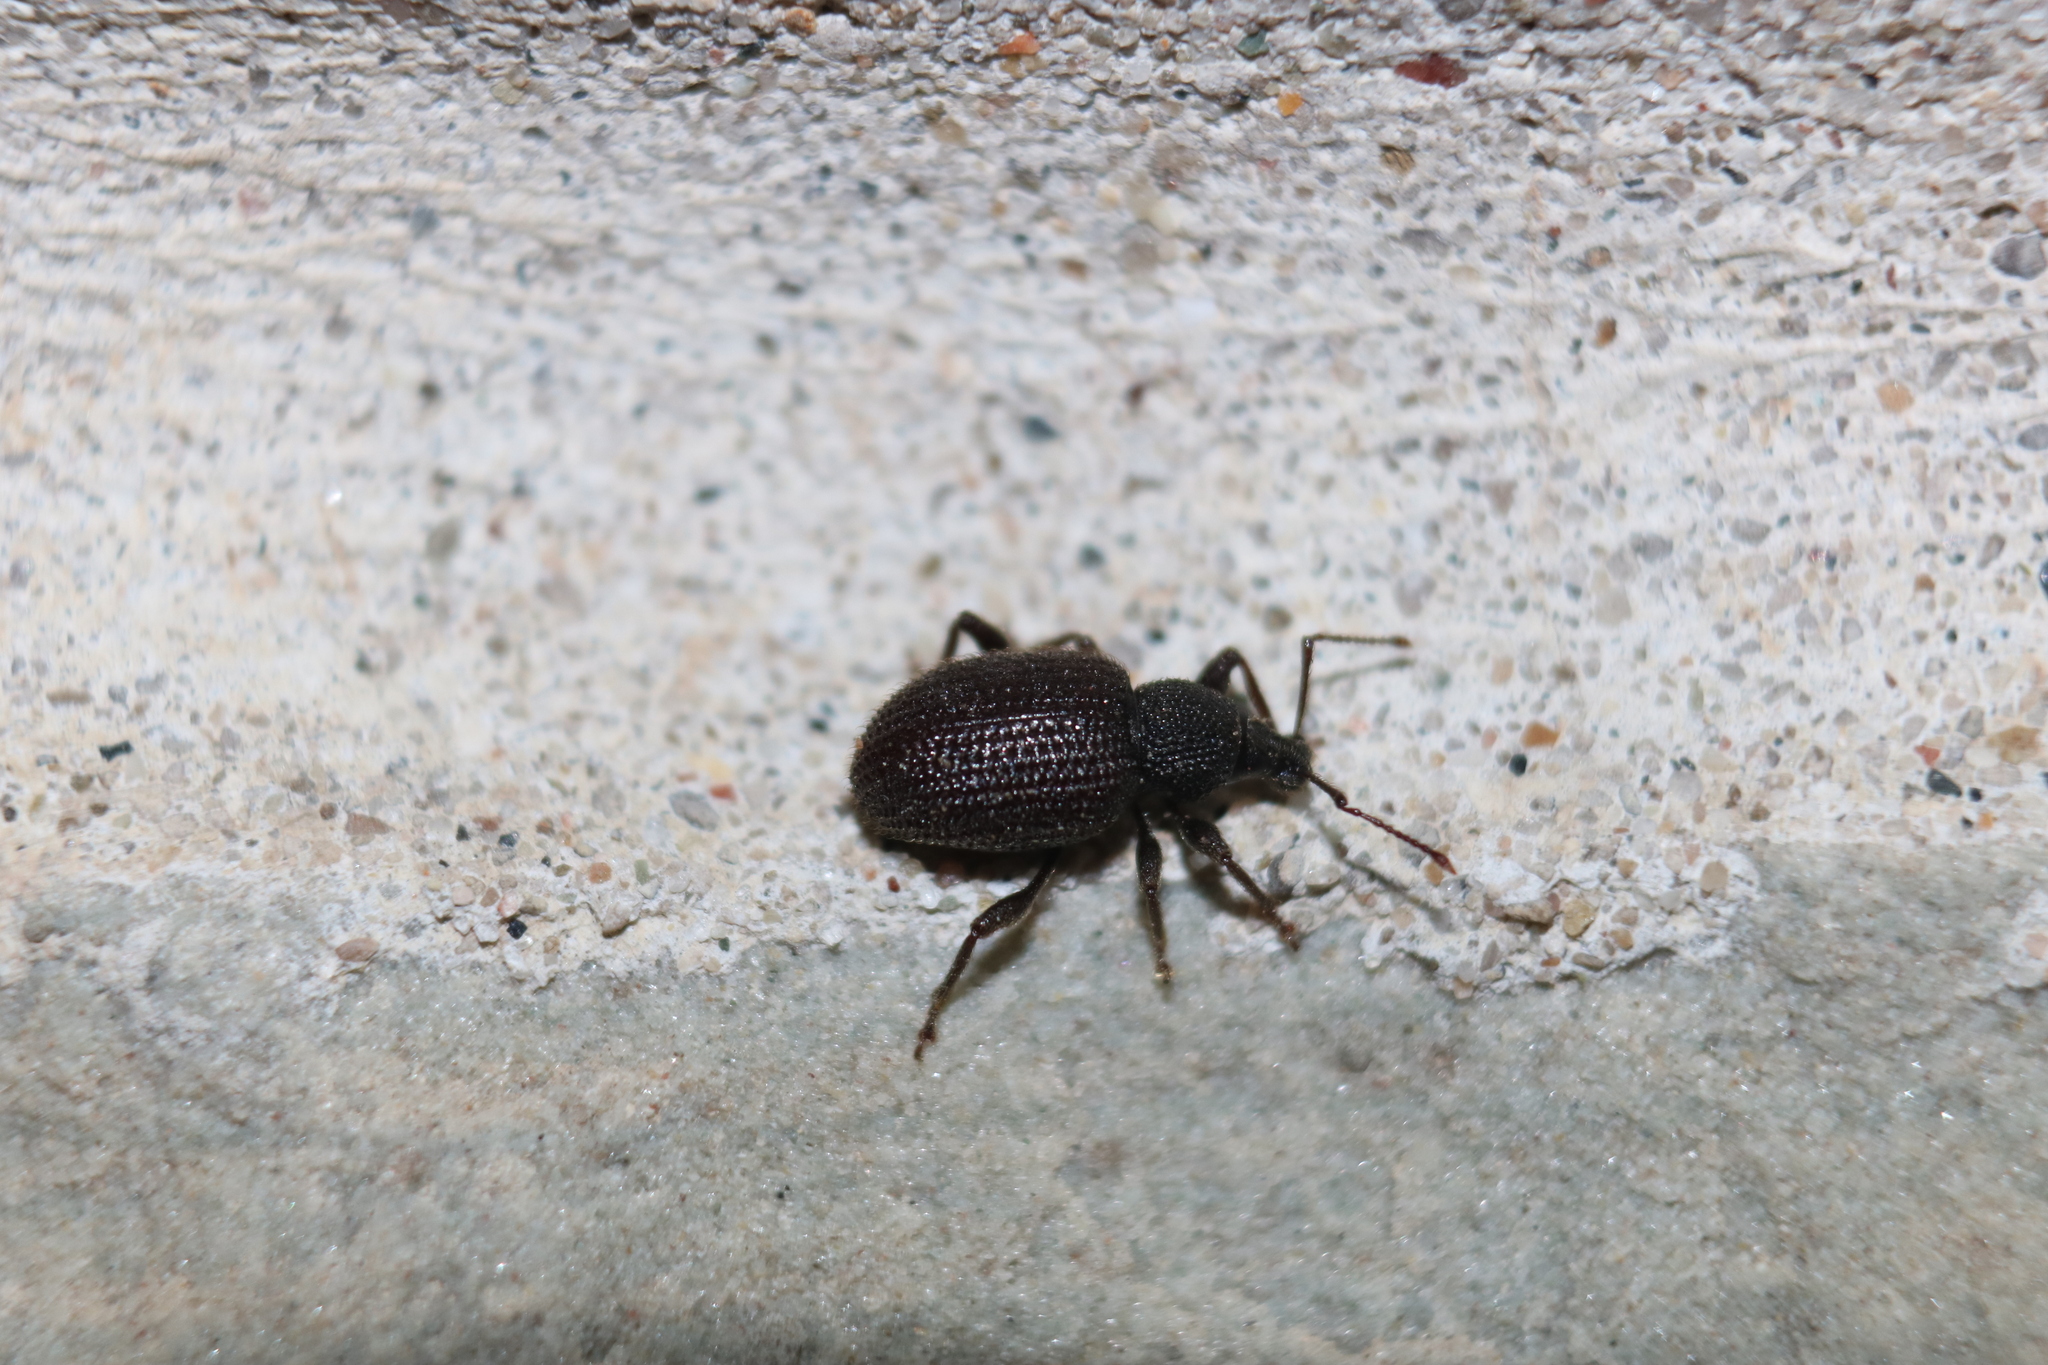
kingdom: Animalia
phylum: Arthropoda
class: Insecta
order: Coleoptera
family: Curculionidae
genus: Otiorhynchus
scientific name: Otiorhynchus rugosostriatus
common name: Weevil
